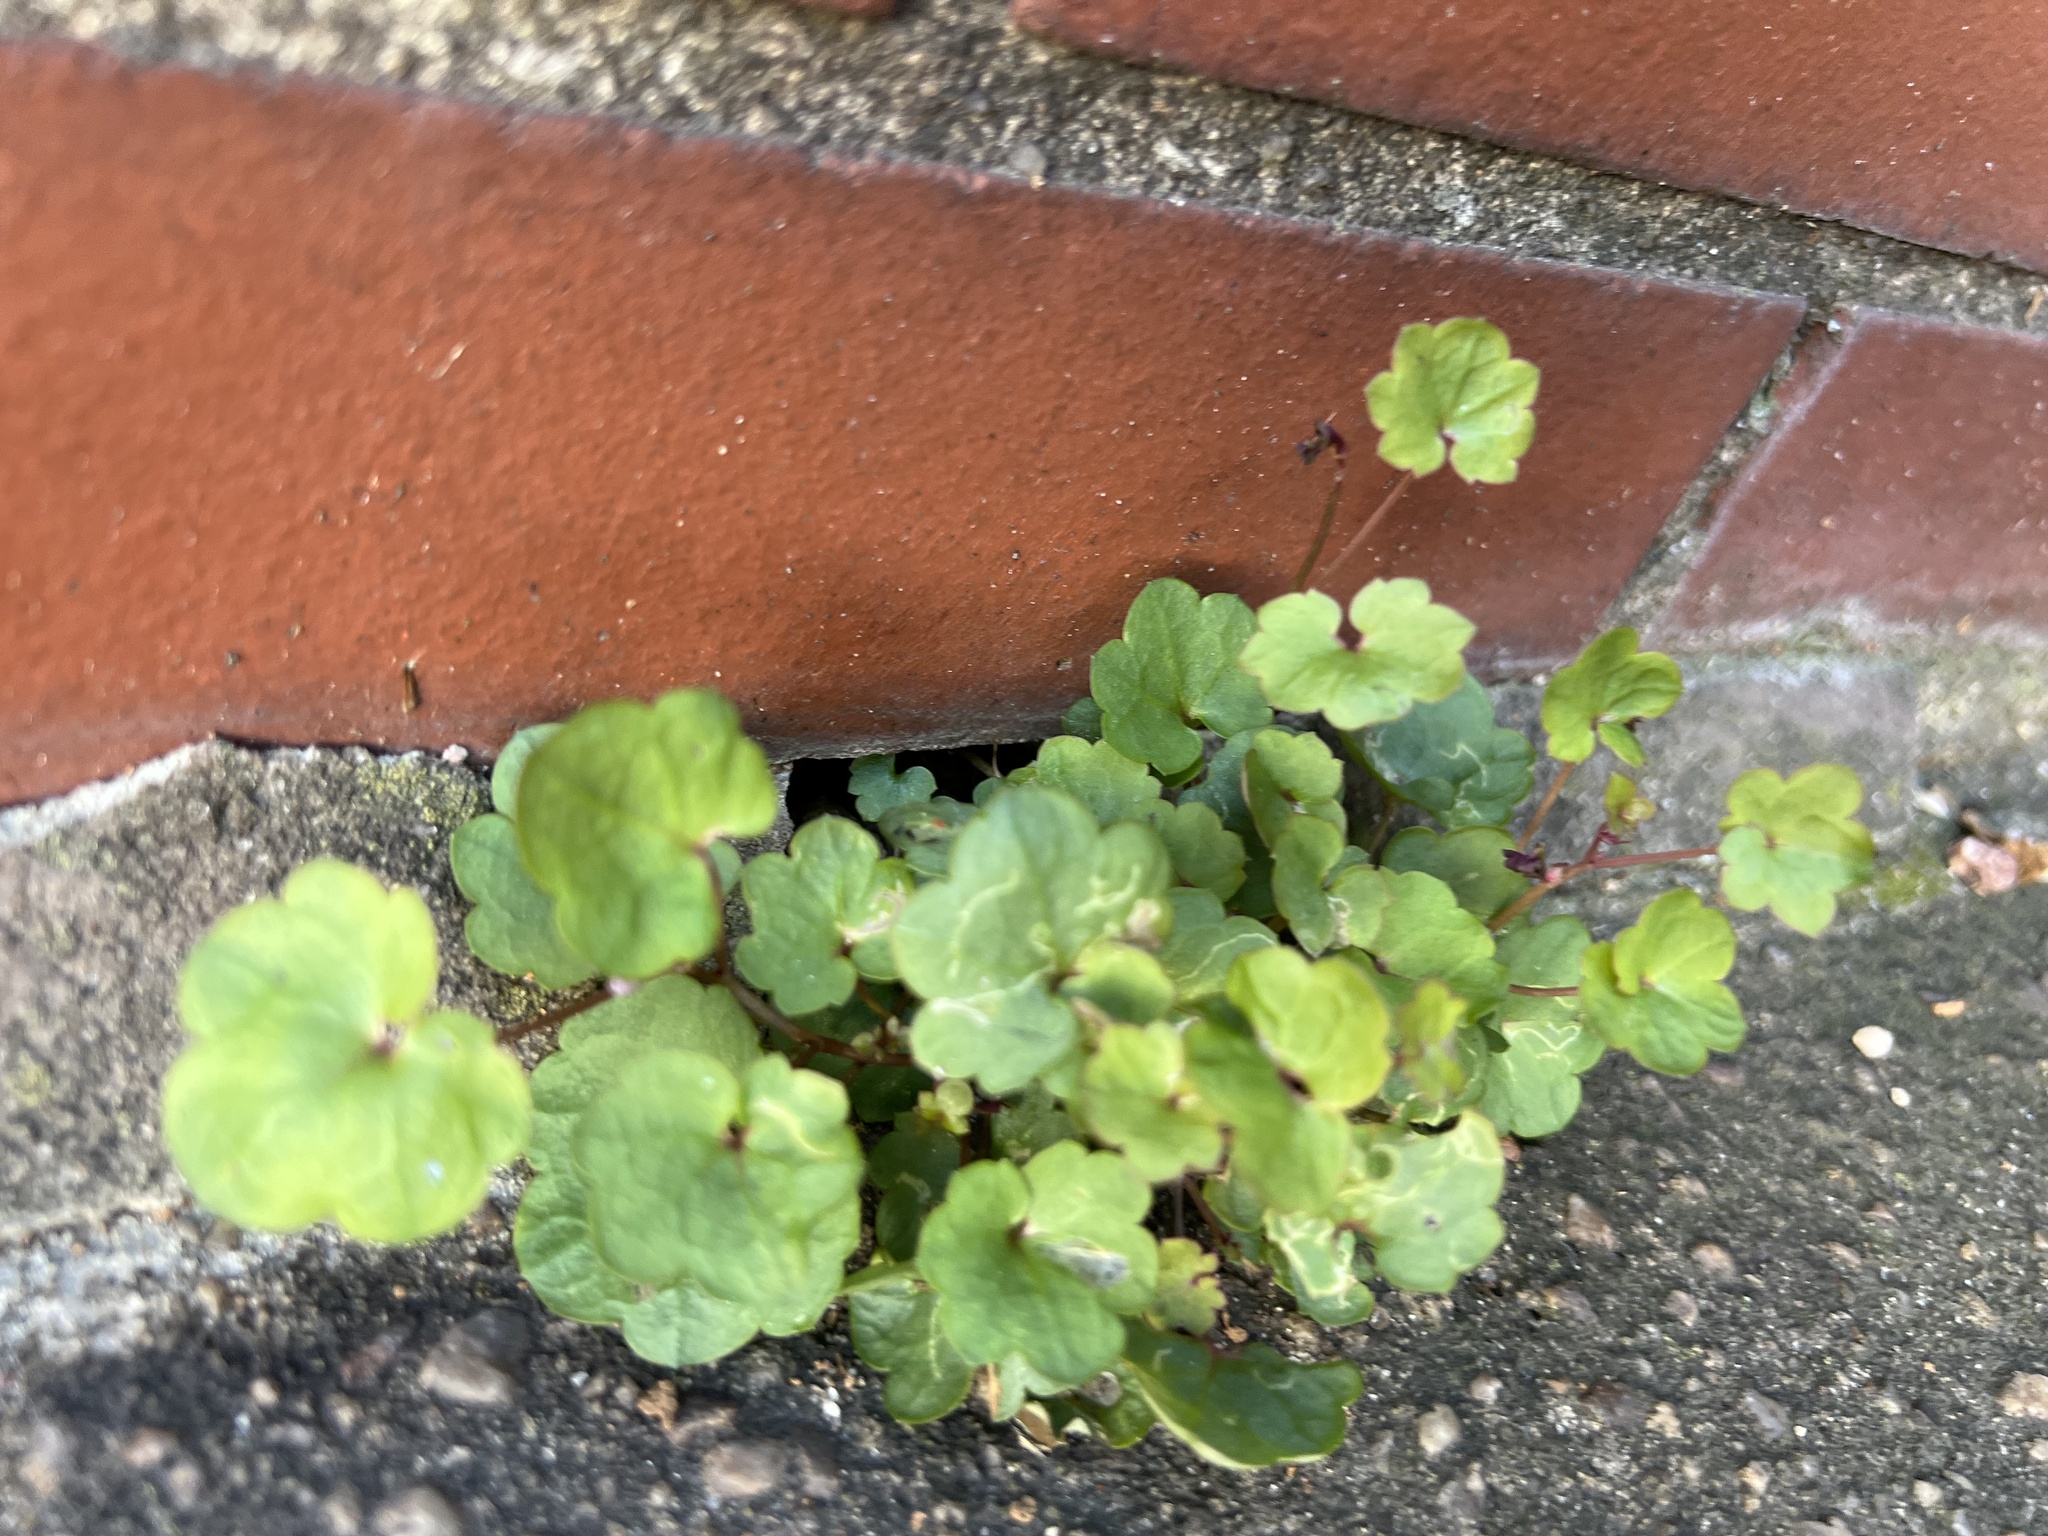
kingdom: Plantae
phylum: Tracheophyta
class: Magnoliopsida
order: Lamiales
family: Plantaginaceae
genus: Cymbalaria
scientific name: Cymbalaria muralis
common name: Ivy-leaved toadflax
